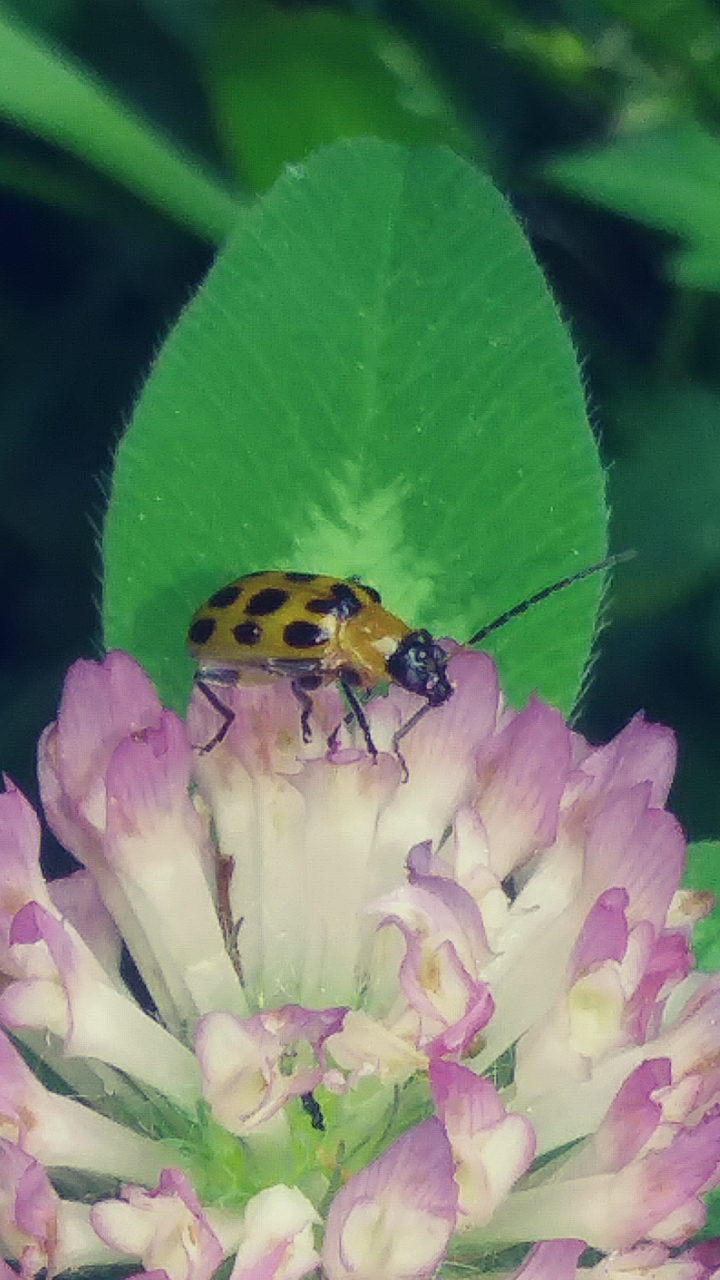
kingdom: Animalia
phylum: Arthropoda
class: Insecta
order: Coleoptera
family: Chrysomelidae
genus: Diabrotica
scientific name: Diabrotica undecimpunctata
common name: Spotted cucumber beetle
